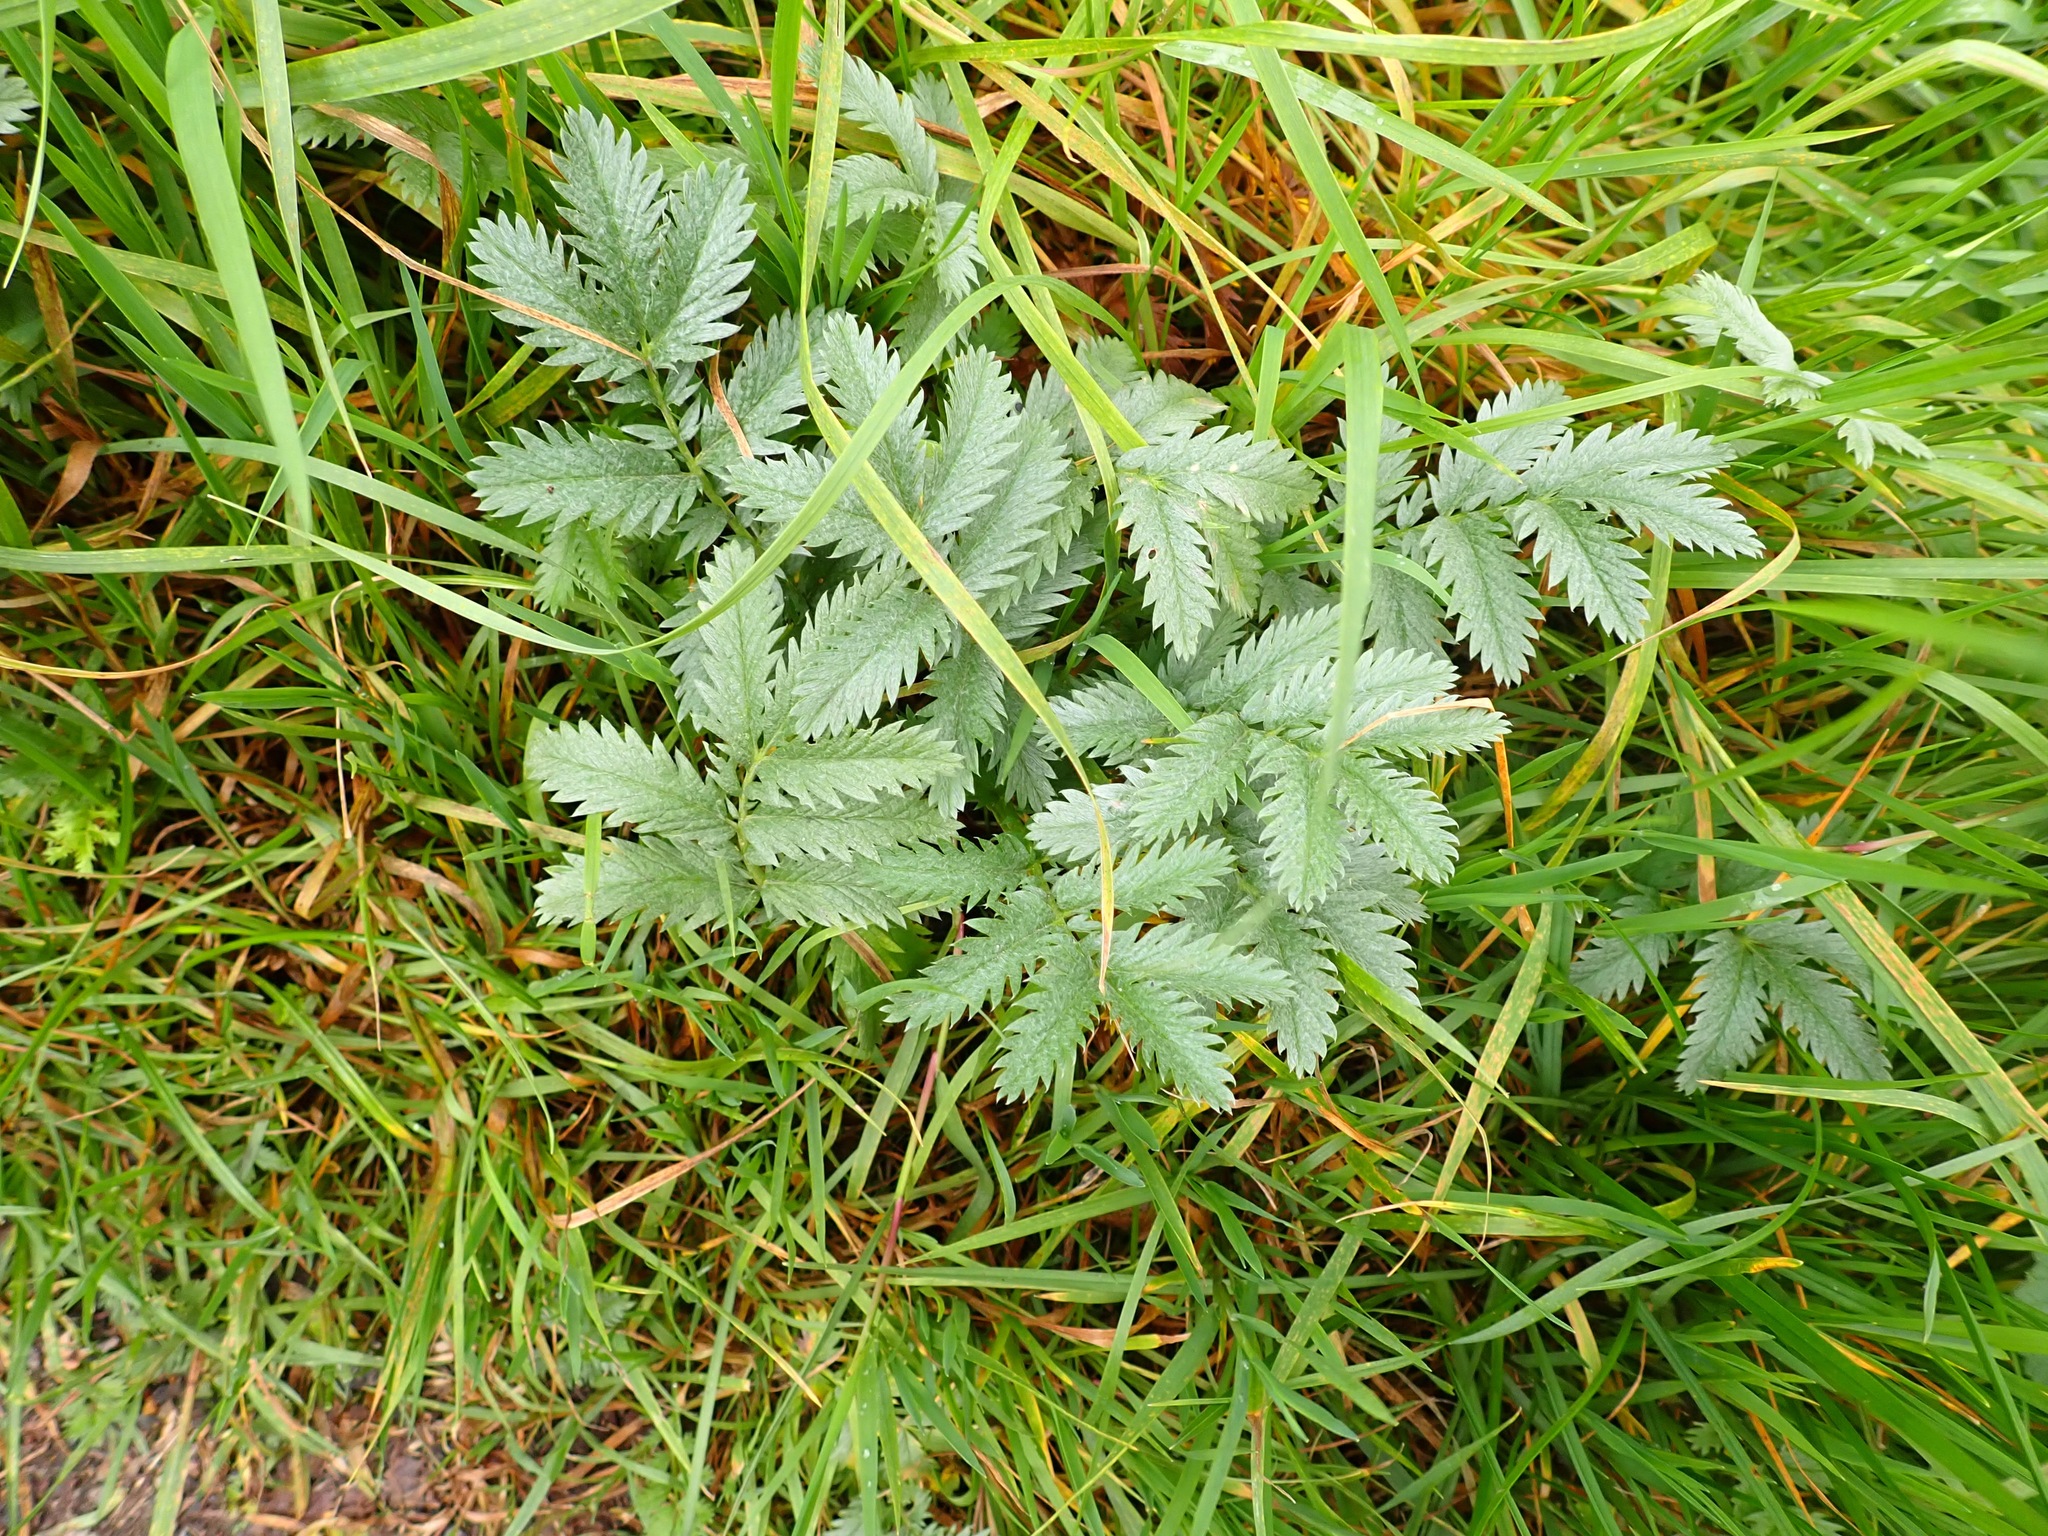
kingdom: Plantae
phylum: Tracheophyta
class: Magnoliopsida
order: Rosales
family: Rosaceae
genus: Argentina
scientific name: Argentina anserina
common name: Common silverweed
